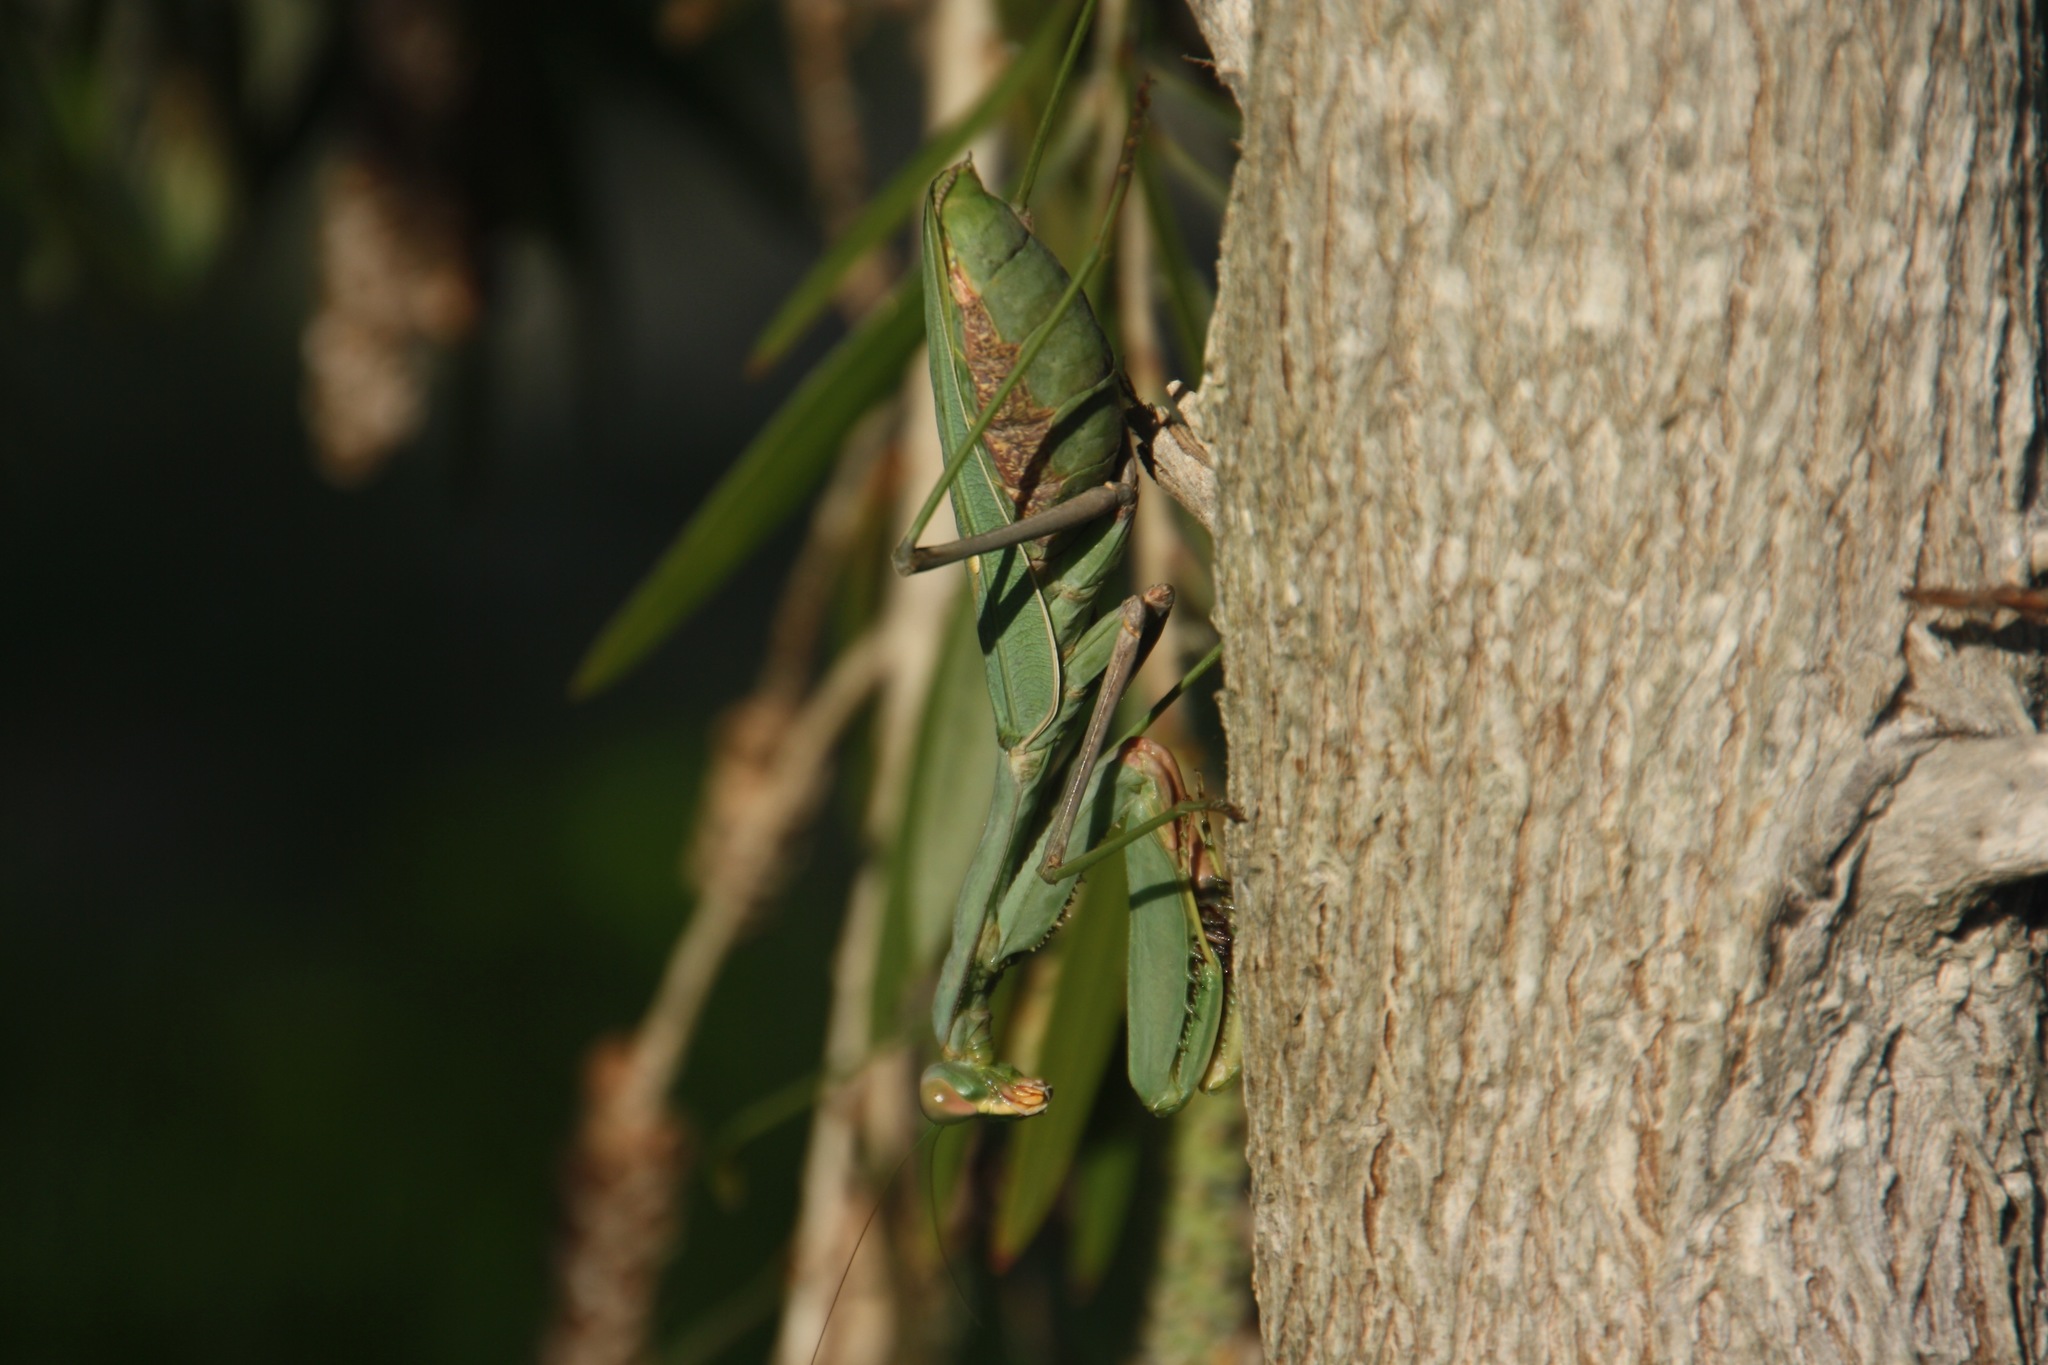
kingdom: Animalia
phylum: Arthropoda
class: Insecta
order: Mantodea
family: Mantidae
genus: Sphodromantis
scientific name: Sphodromantis viridis
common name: Giant african mantis
